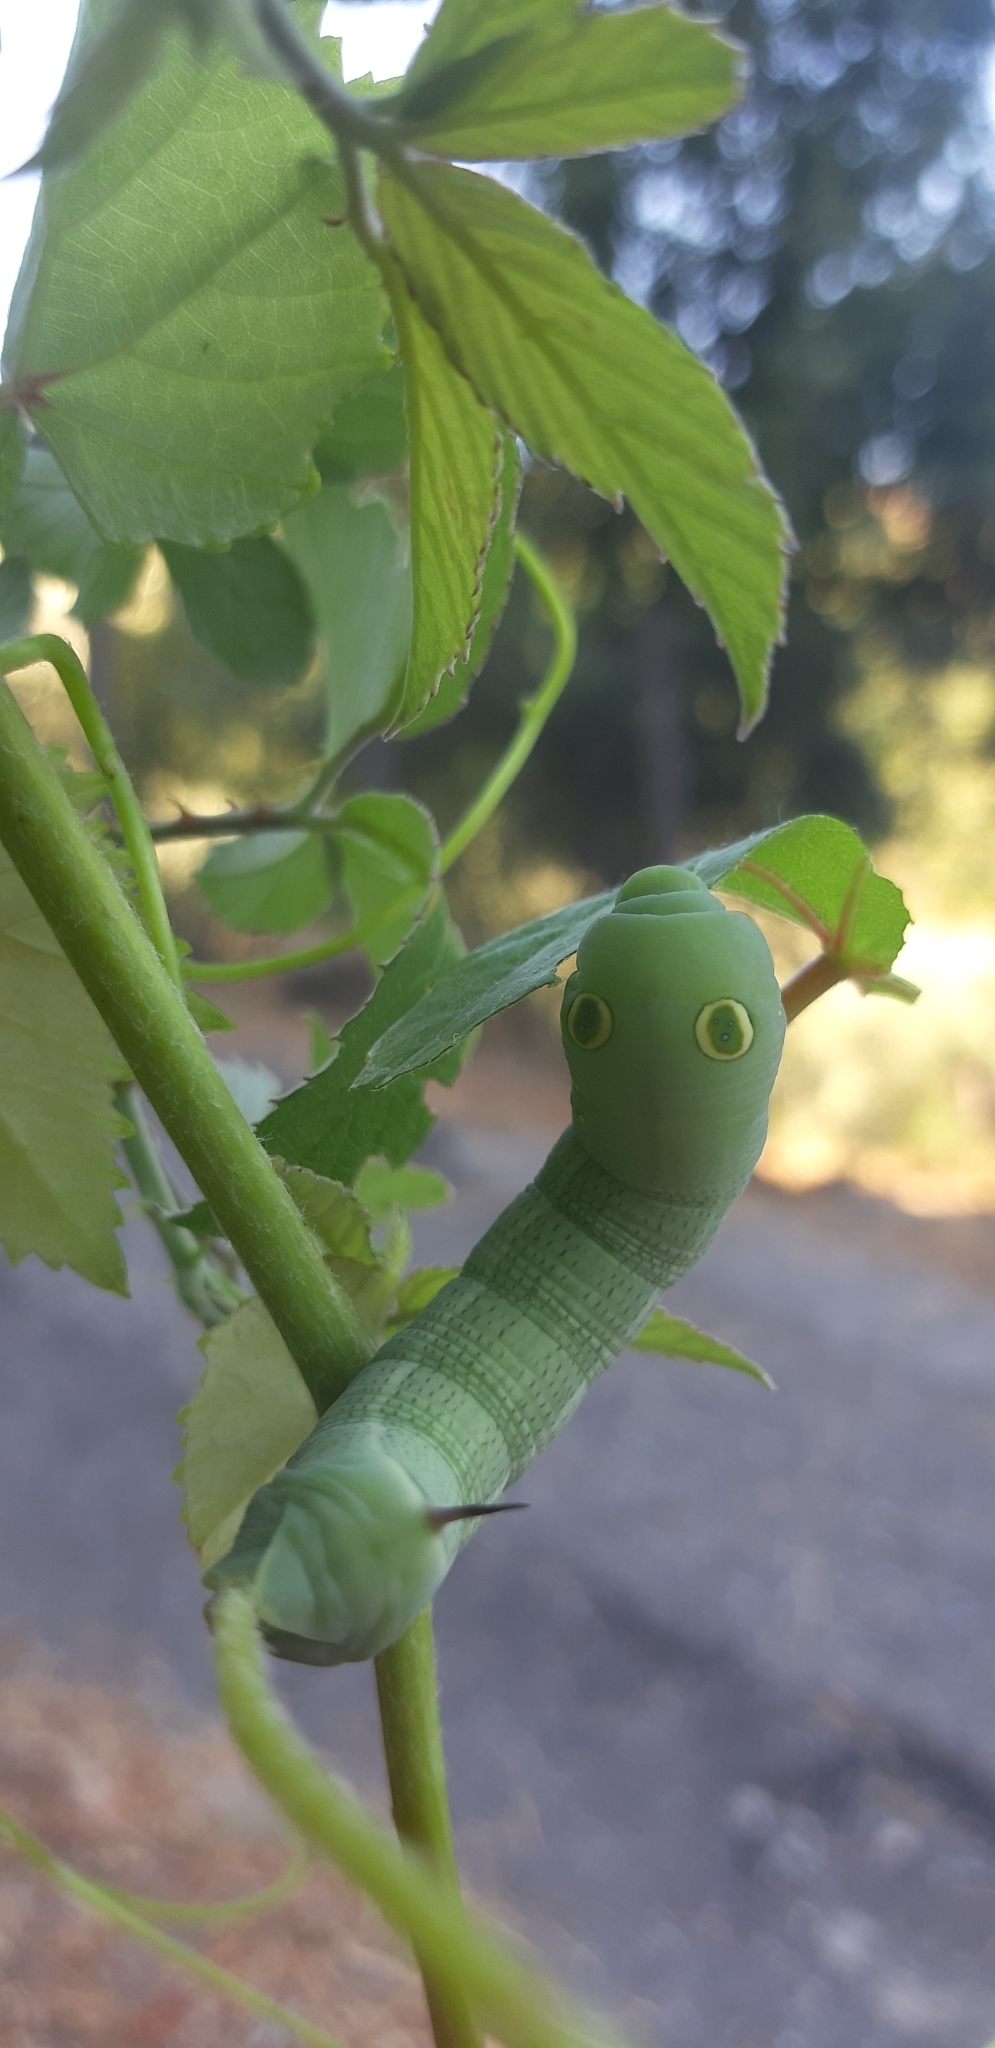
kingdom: Animalia
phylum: Arthropoda
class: Insecta
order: Lepidoptera
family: Sphingidae
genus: Hippotion
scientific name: Hippotion celerio
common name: Silver-striped hawk-moth
